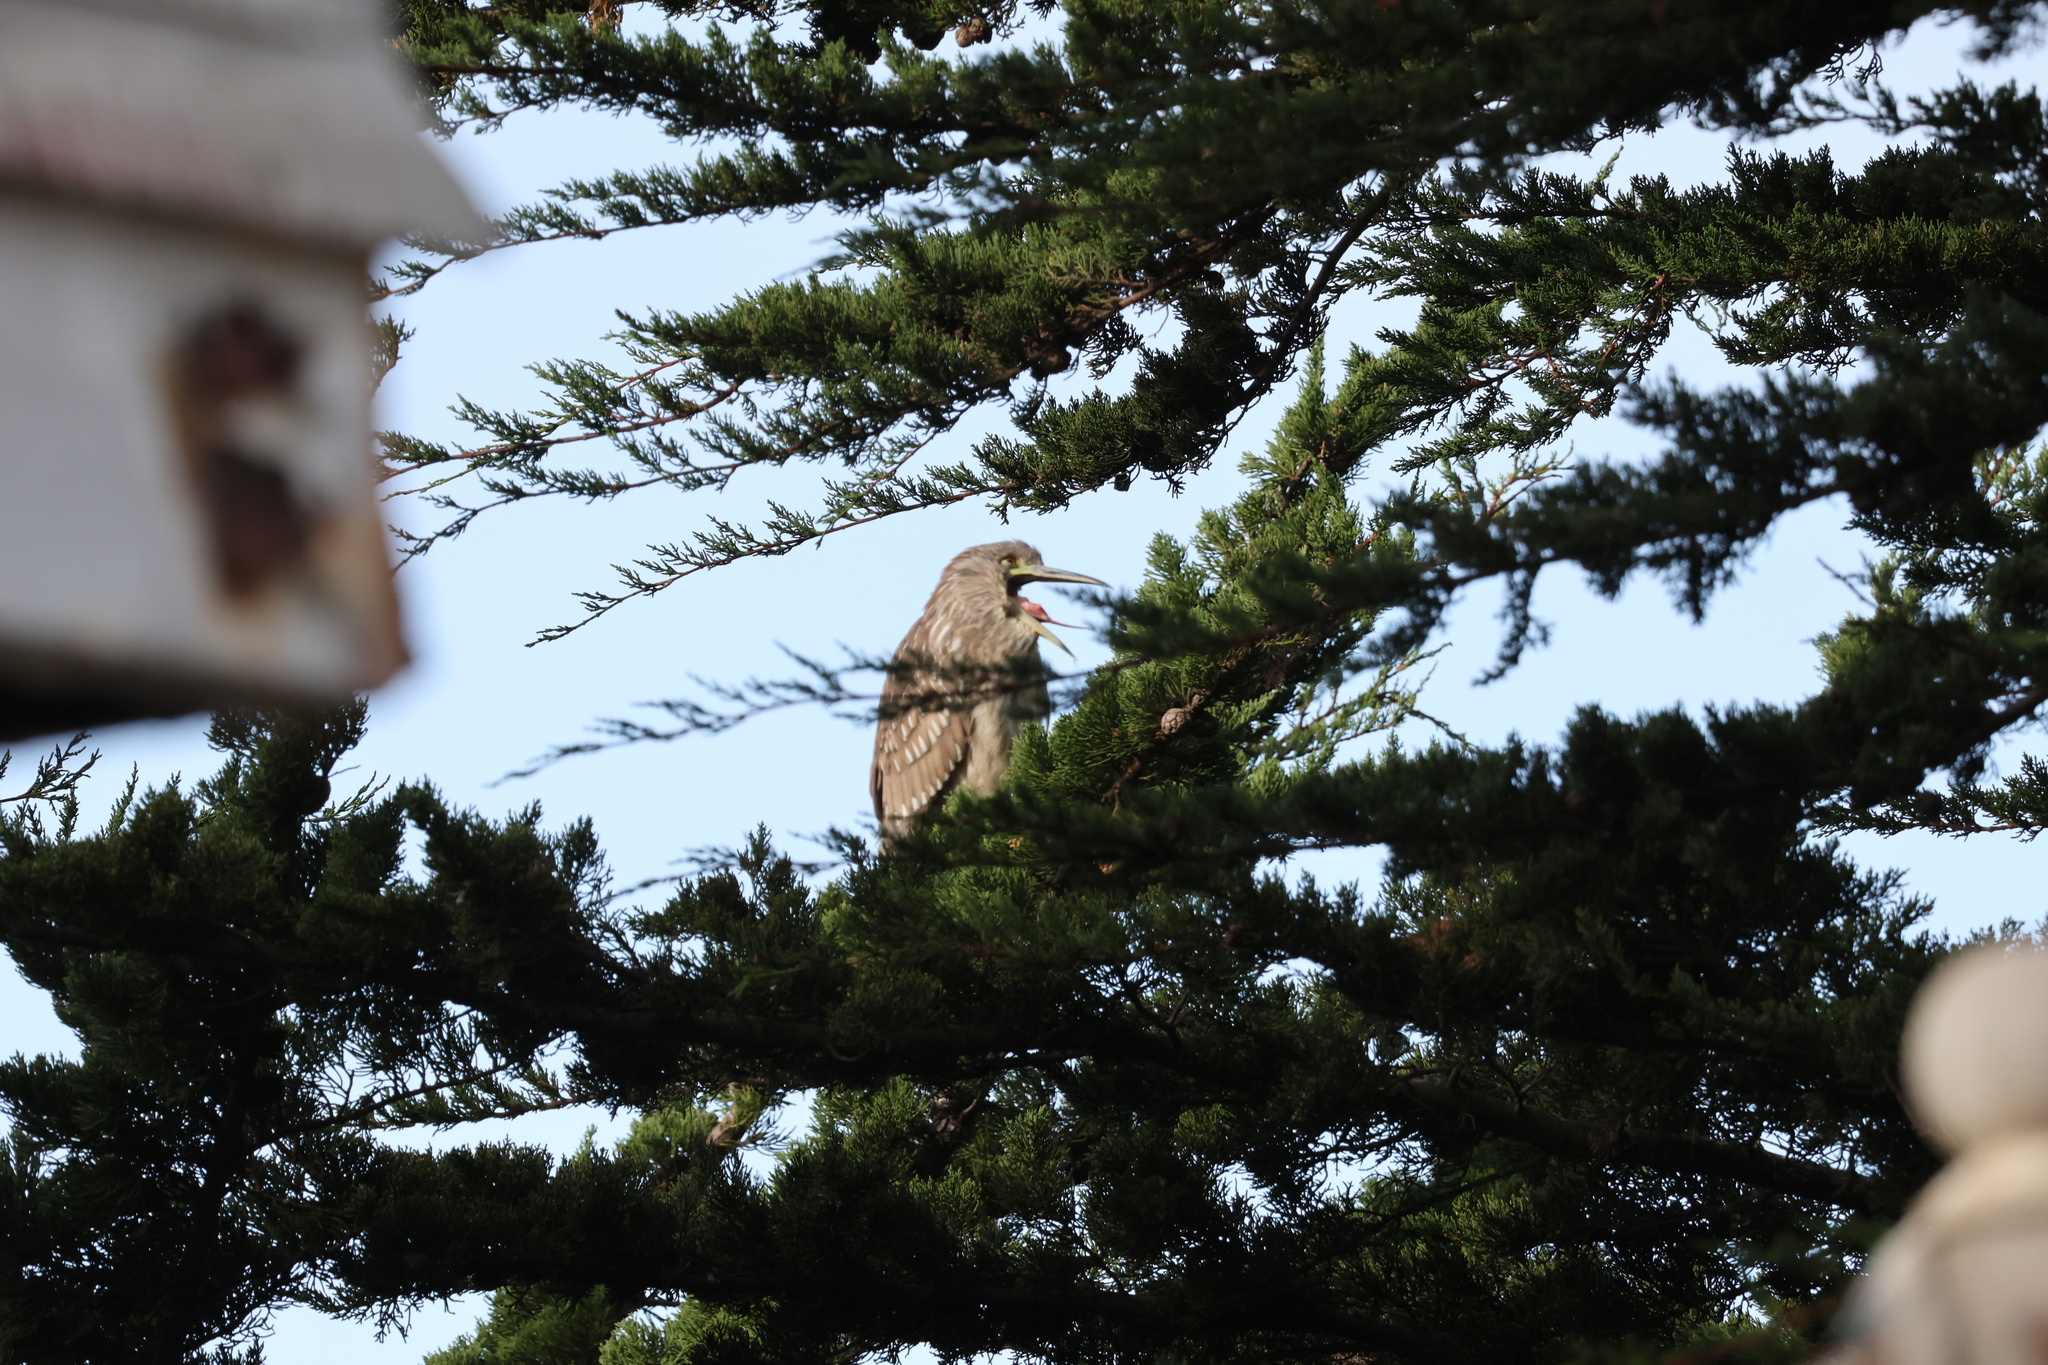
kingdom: Animalia
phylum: Chordata
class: Aves
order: Pelecaniformes
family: Ardeidae
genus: Nycticorax
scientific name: Nycticorax nycticorax
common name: Black-crowned night heron
